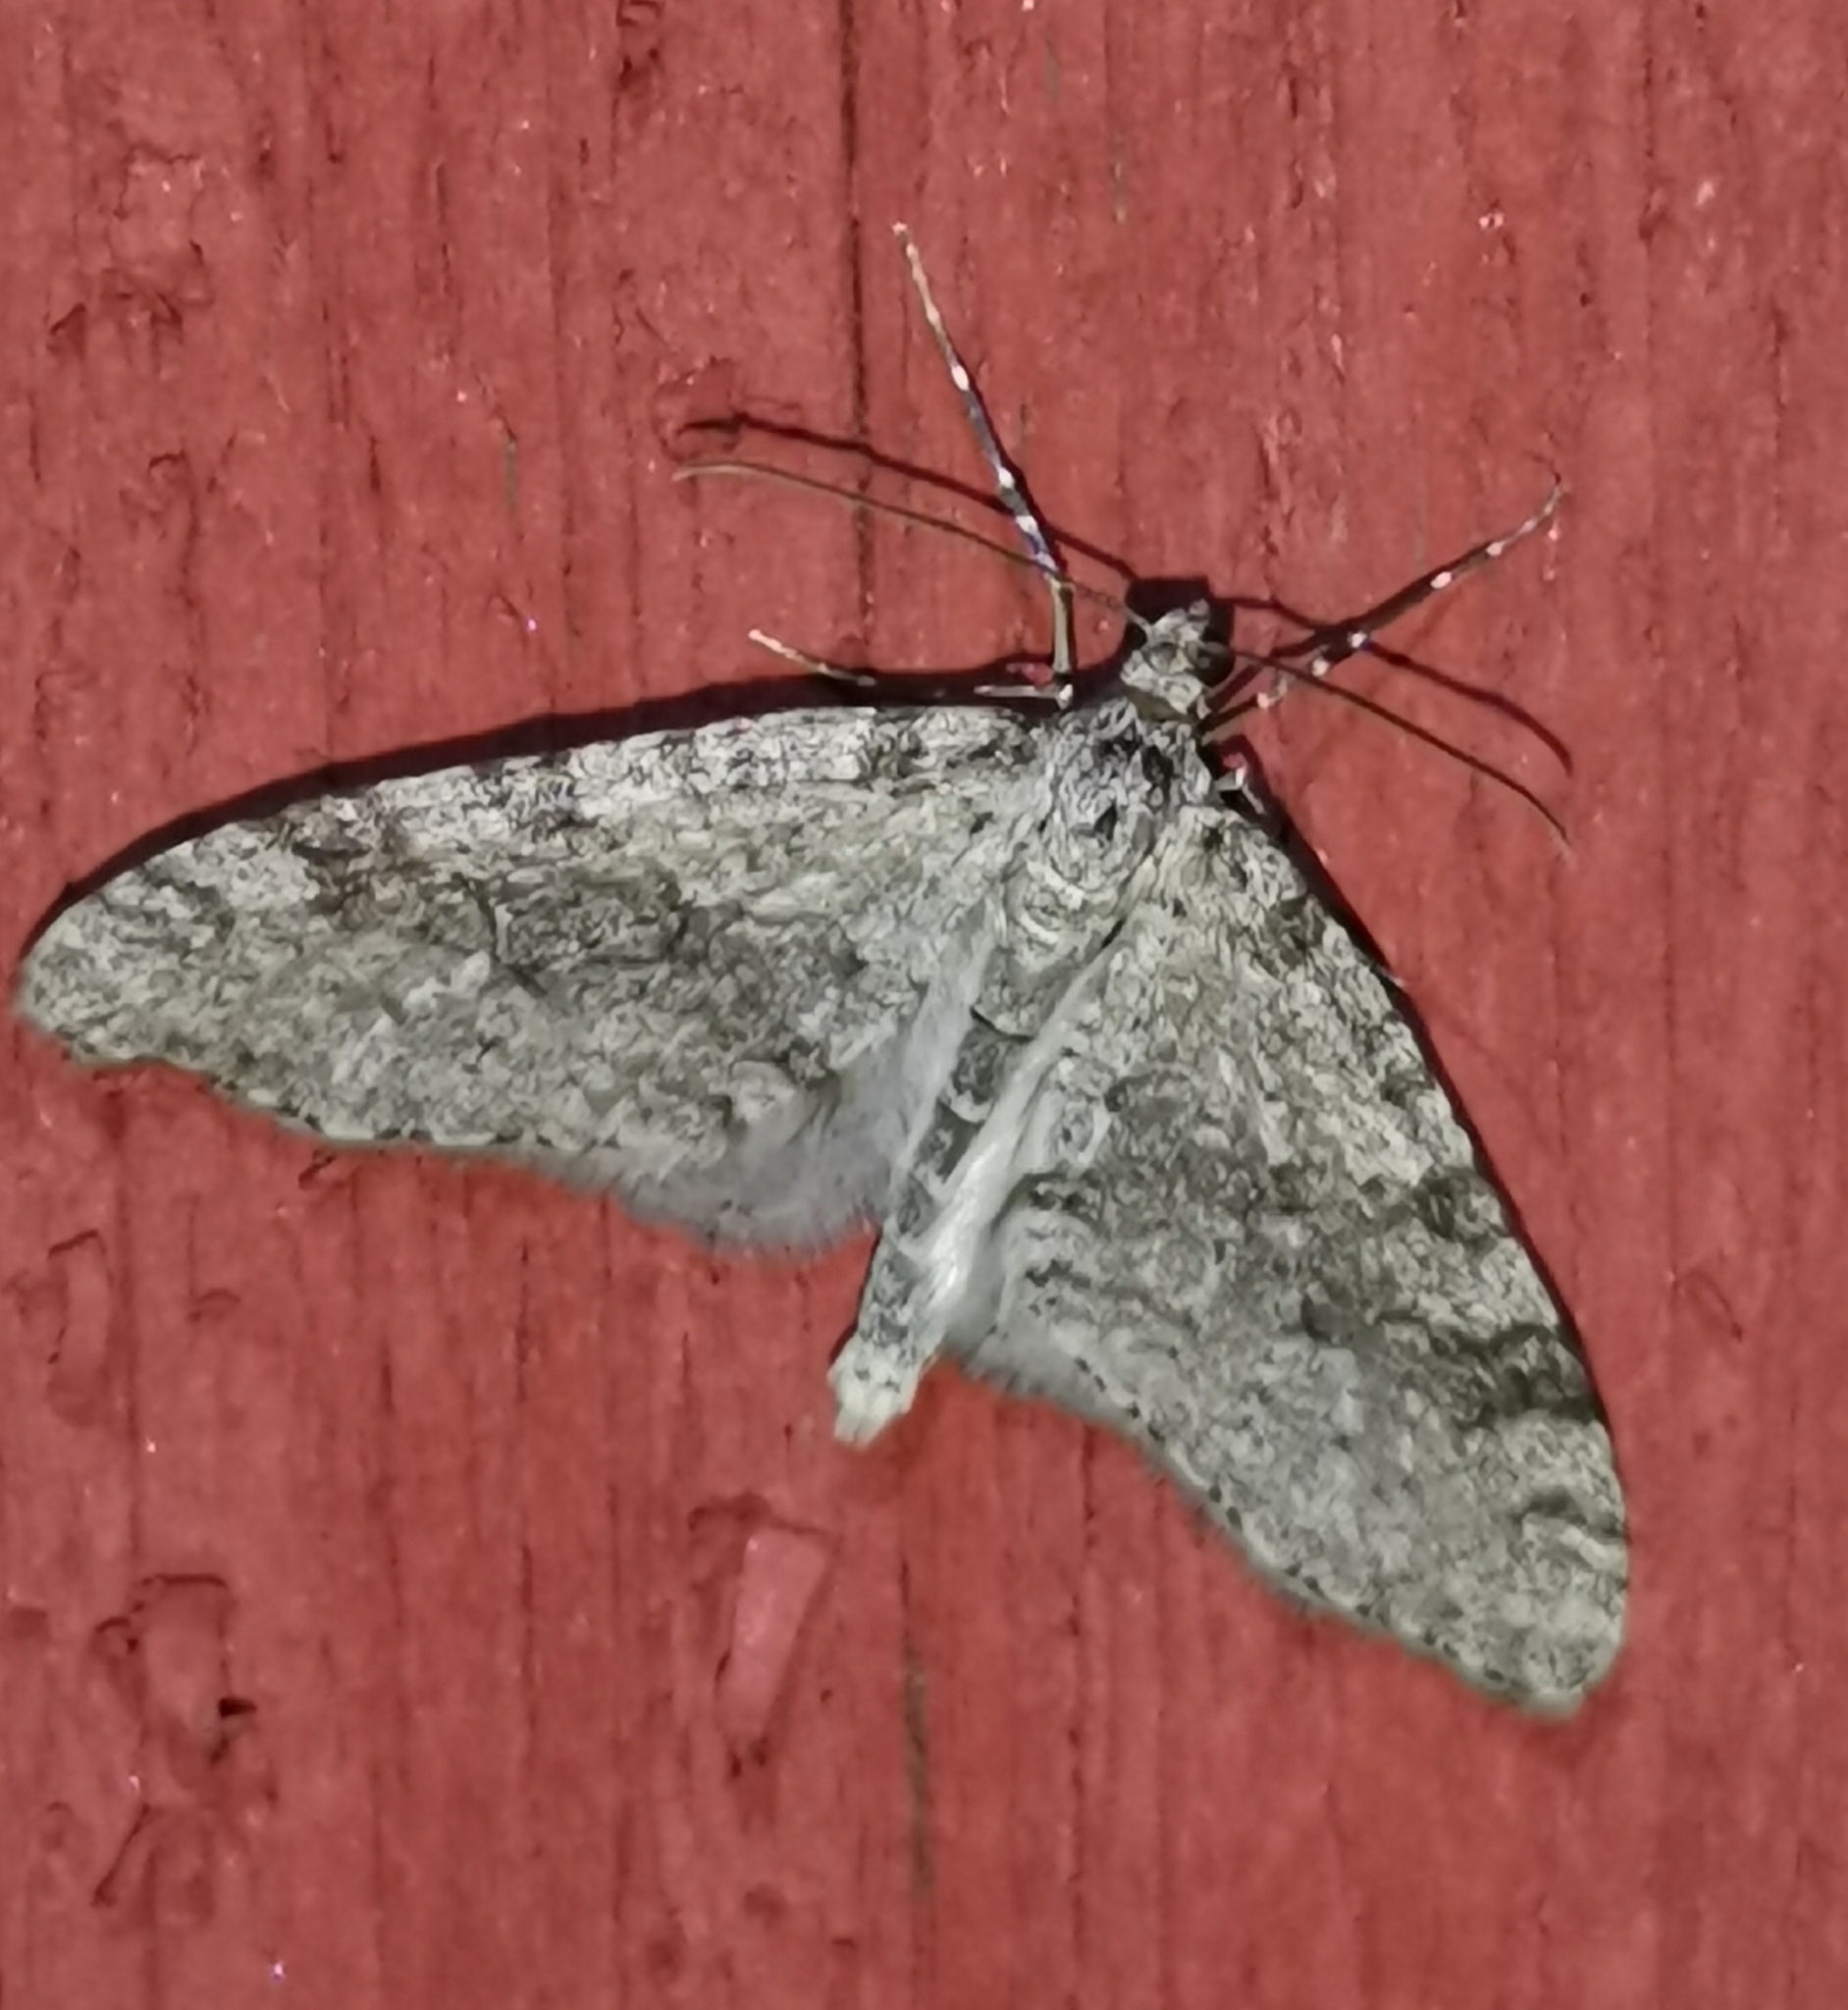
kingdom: Animalia
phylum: Arthropoda
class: Insecta
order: Lepidoptera
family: Geometridae
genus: Trichopteryx
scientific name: Trichopteryx carpinata
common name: Early tooth-striped
